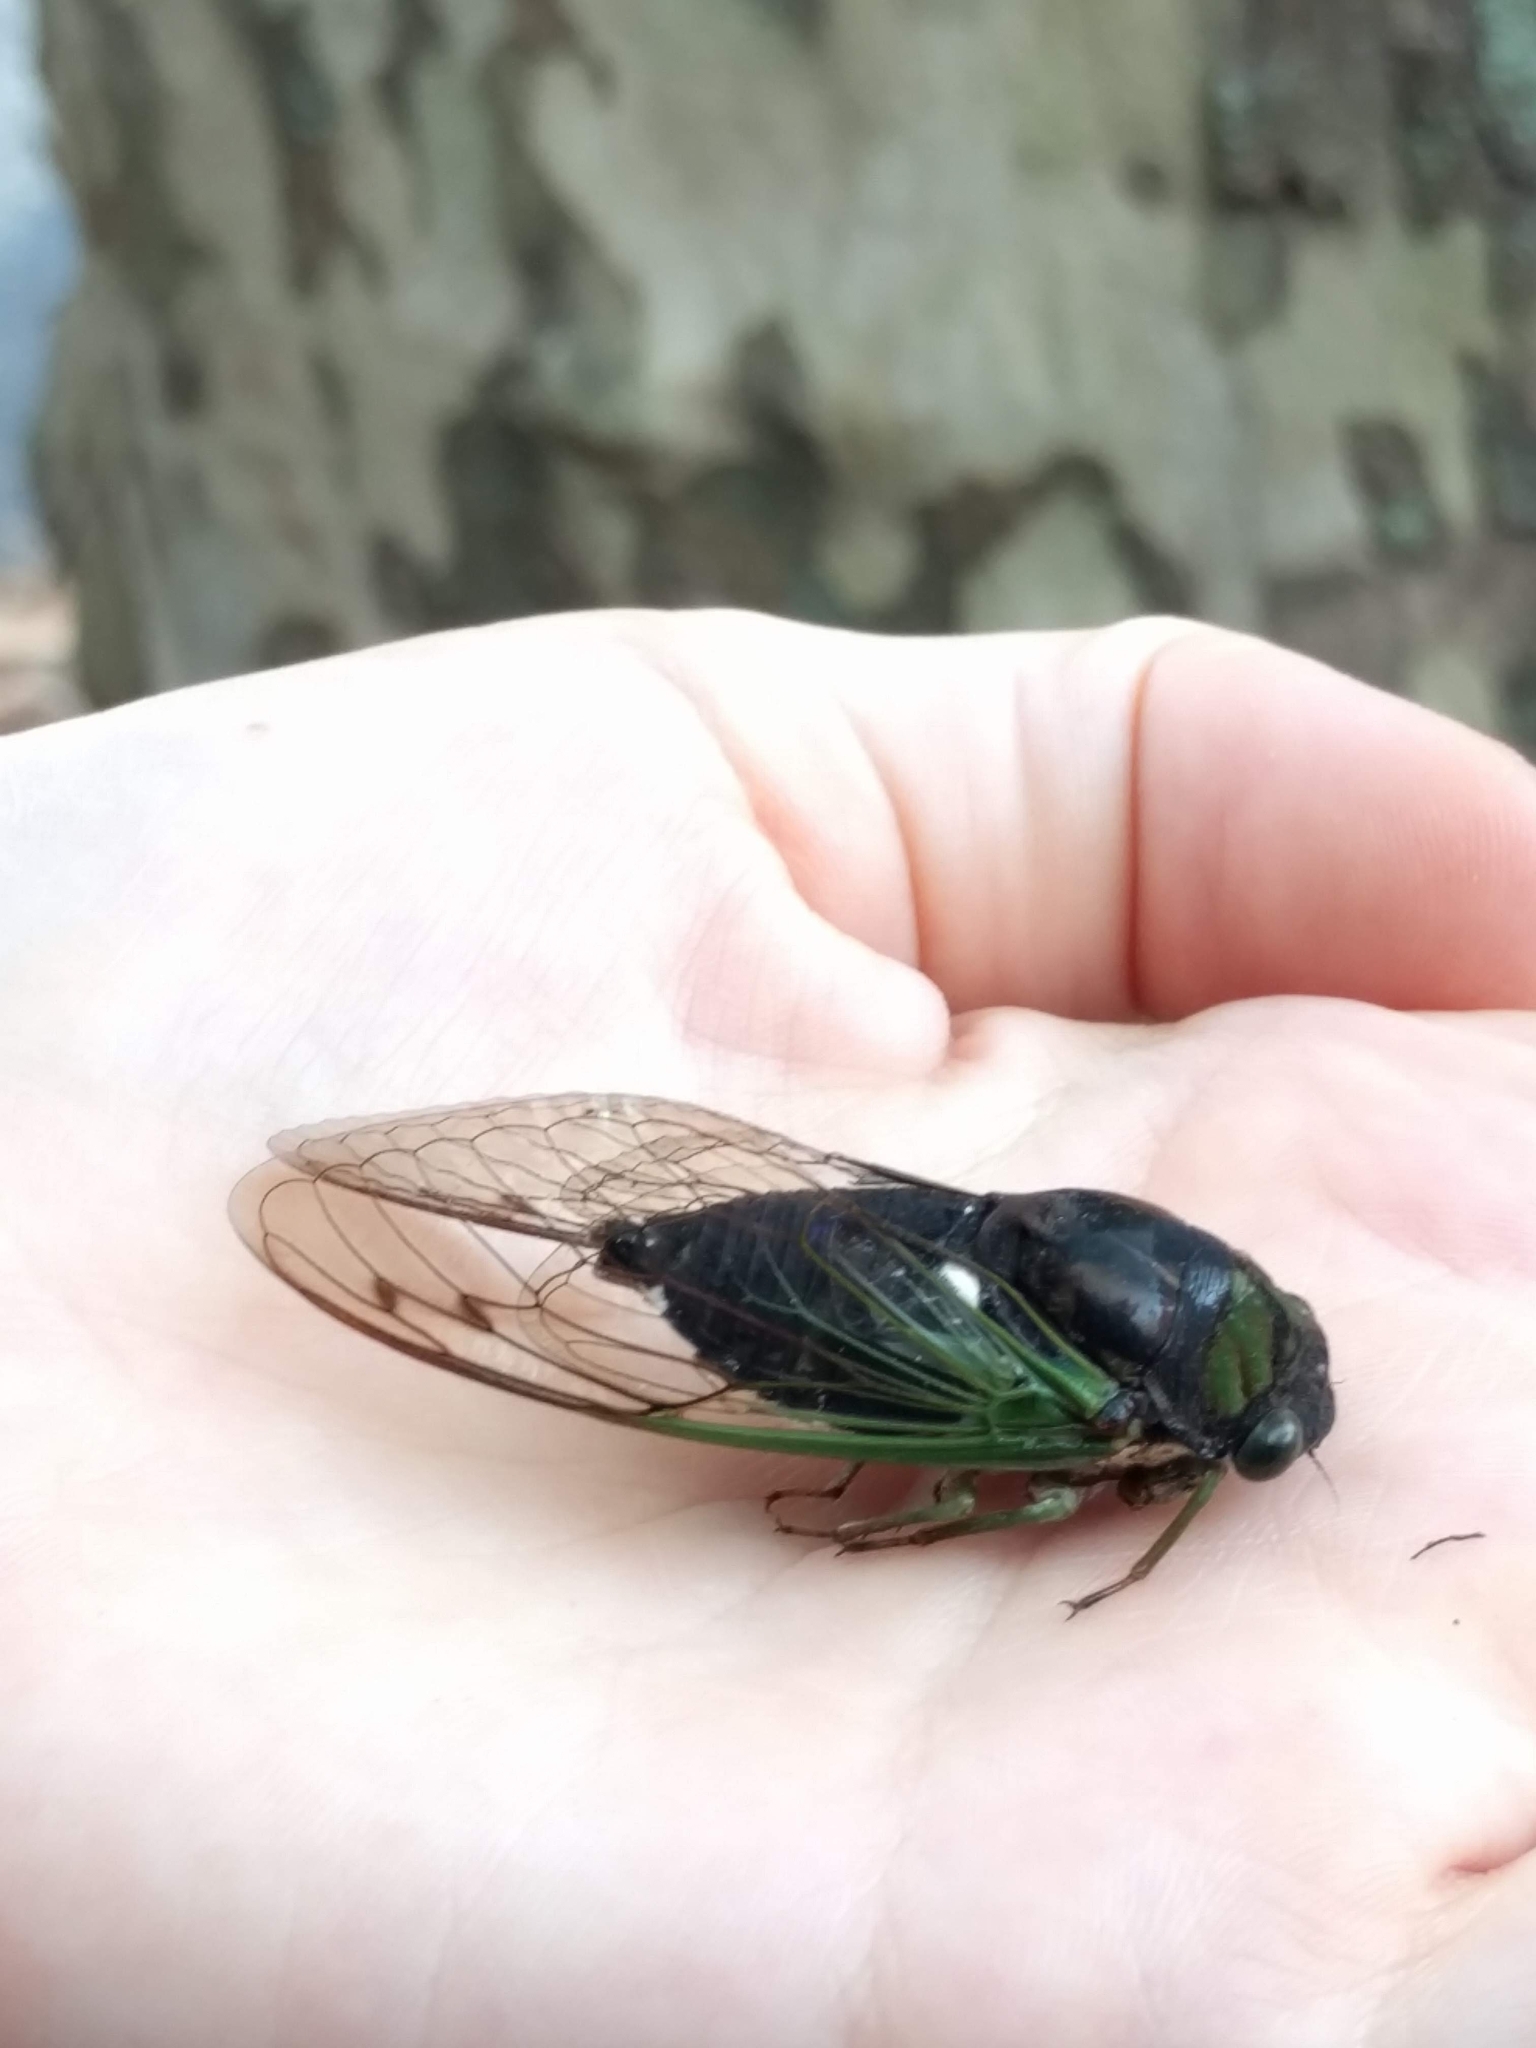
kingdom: Animalia
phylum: Arthropoda
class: Insecta
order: Hemiptera
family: Cicadidae
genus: Neotibicen
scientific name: Neotibicen tibicen
